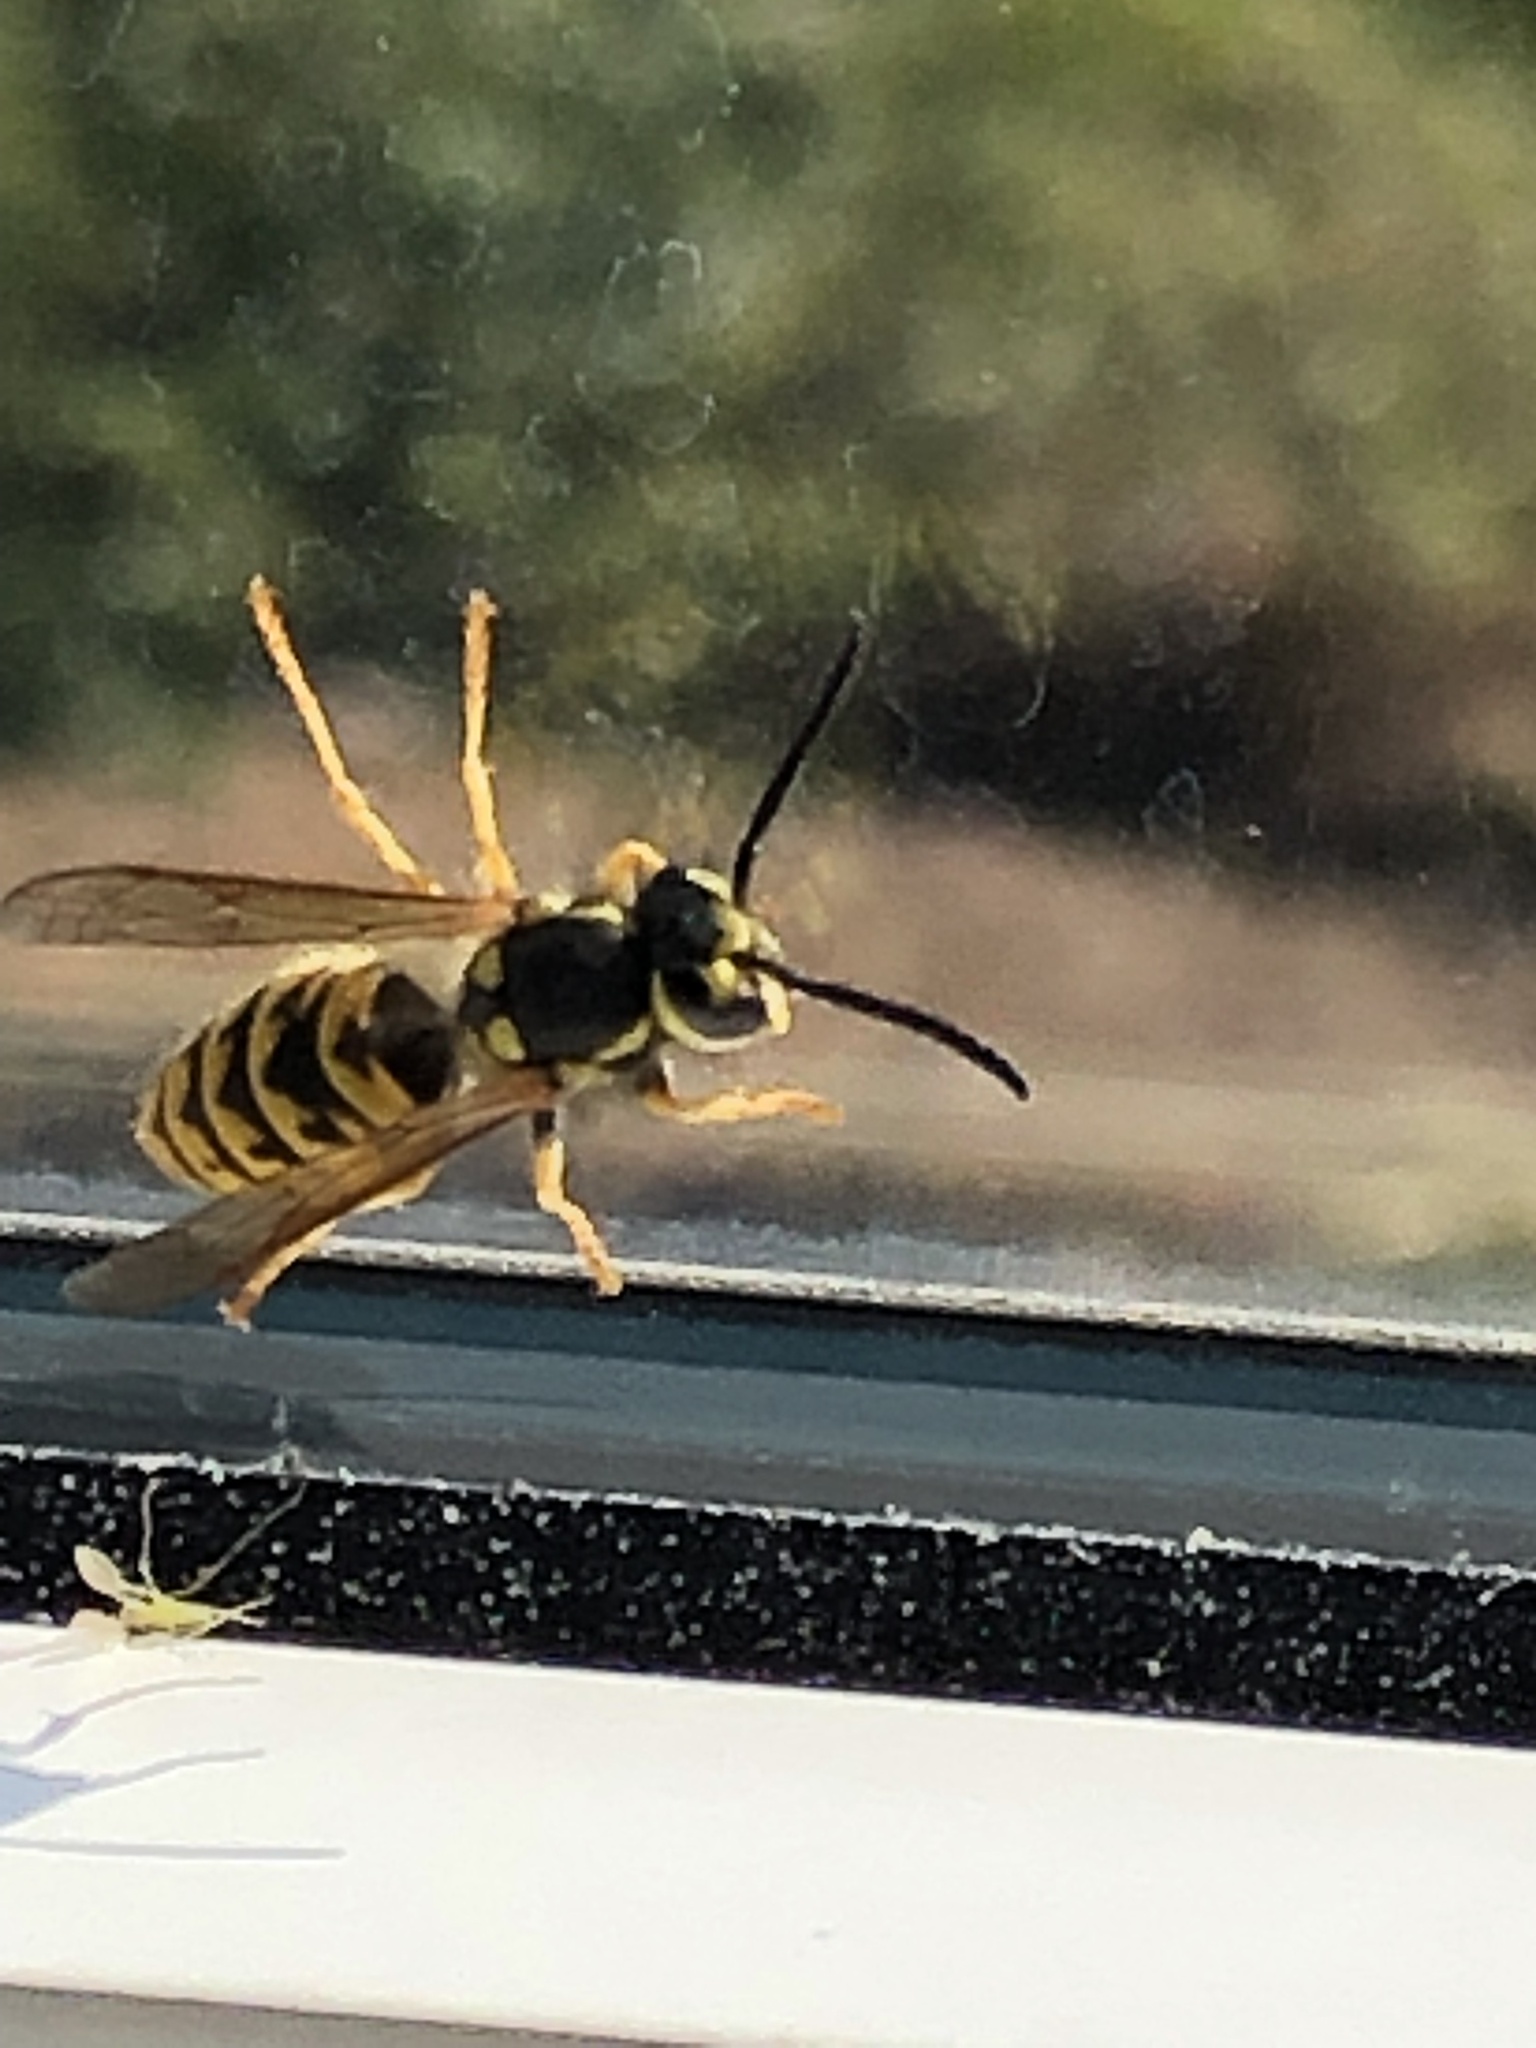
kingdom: Animalia
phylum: Arthropoda
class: Insecta
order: Hymenoptera
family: Vespidae
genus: Vespula
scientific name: Vespula germanica
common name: German wasp
